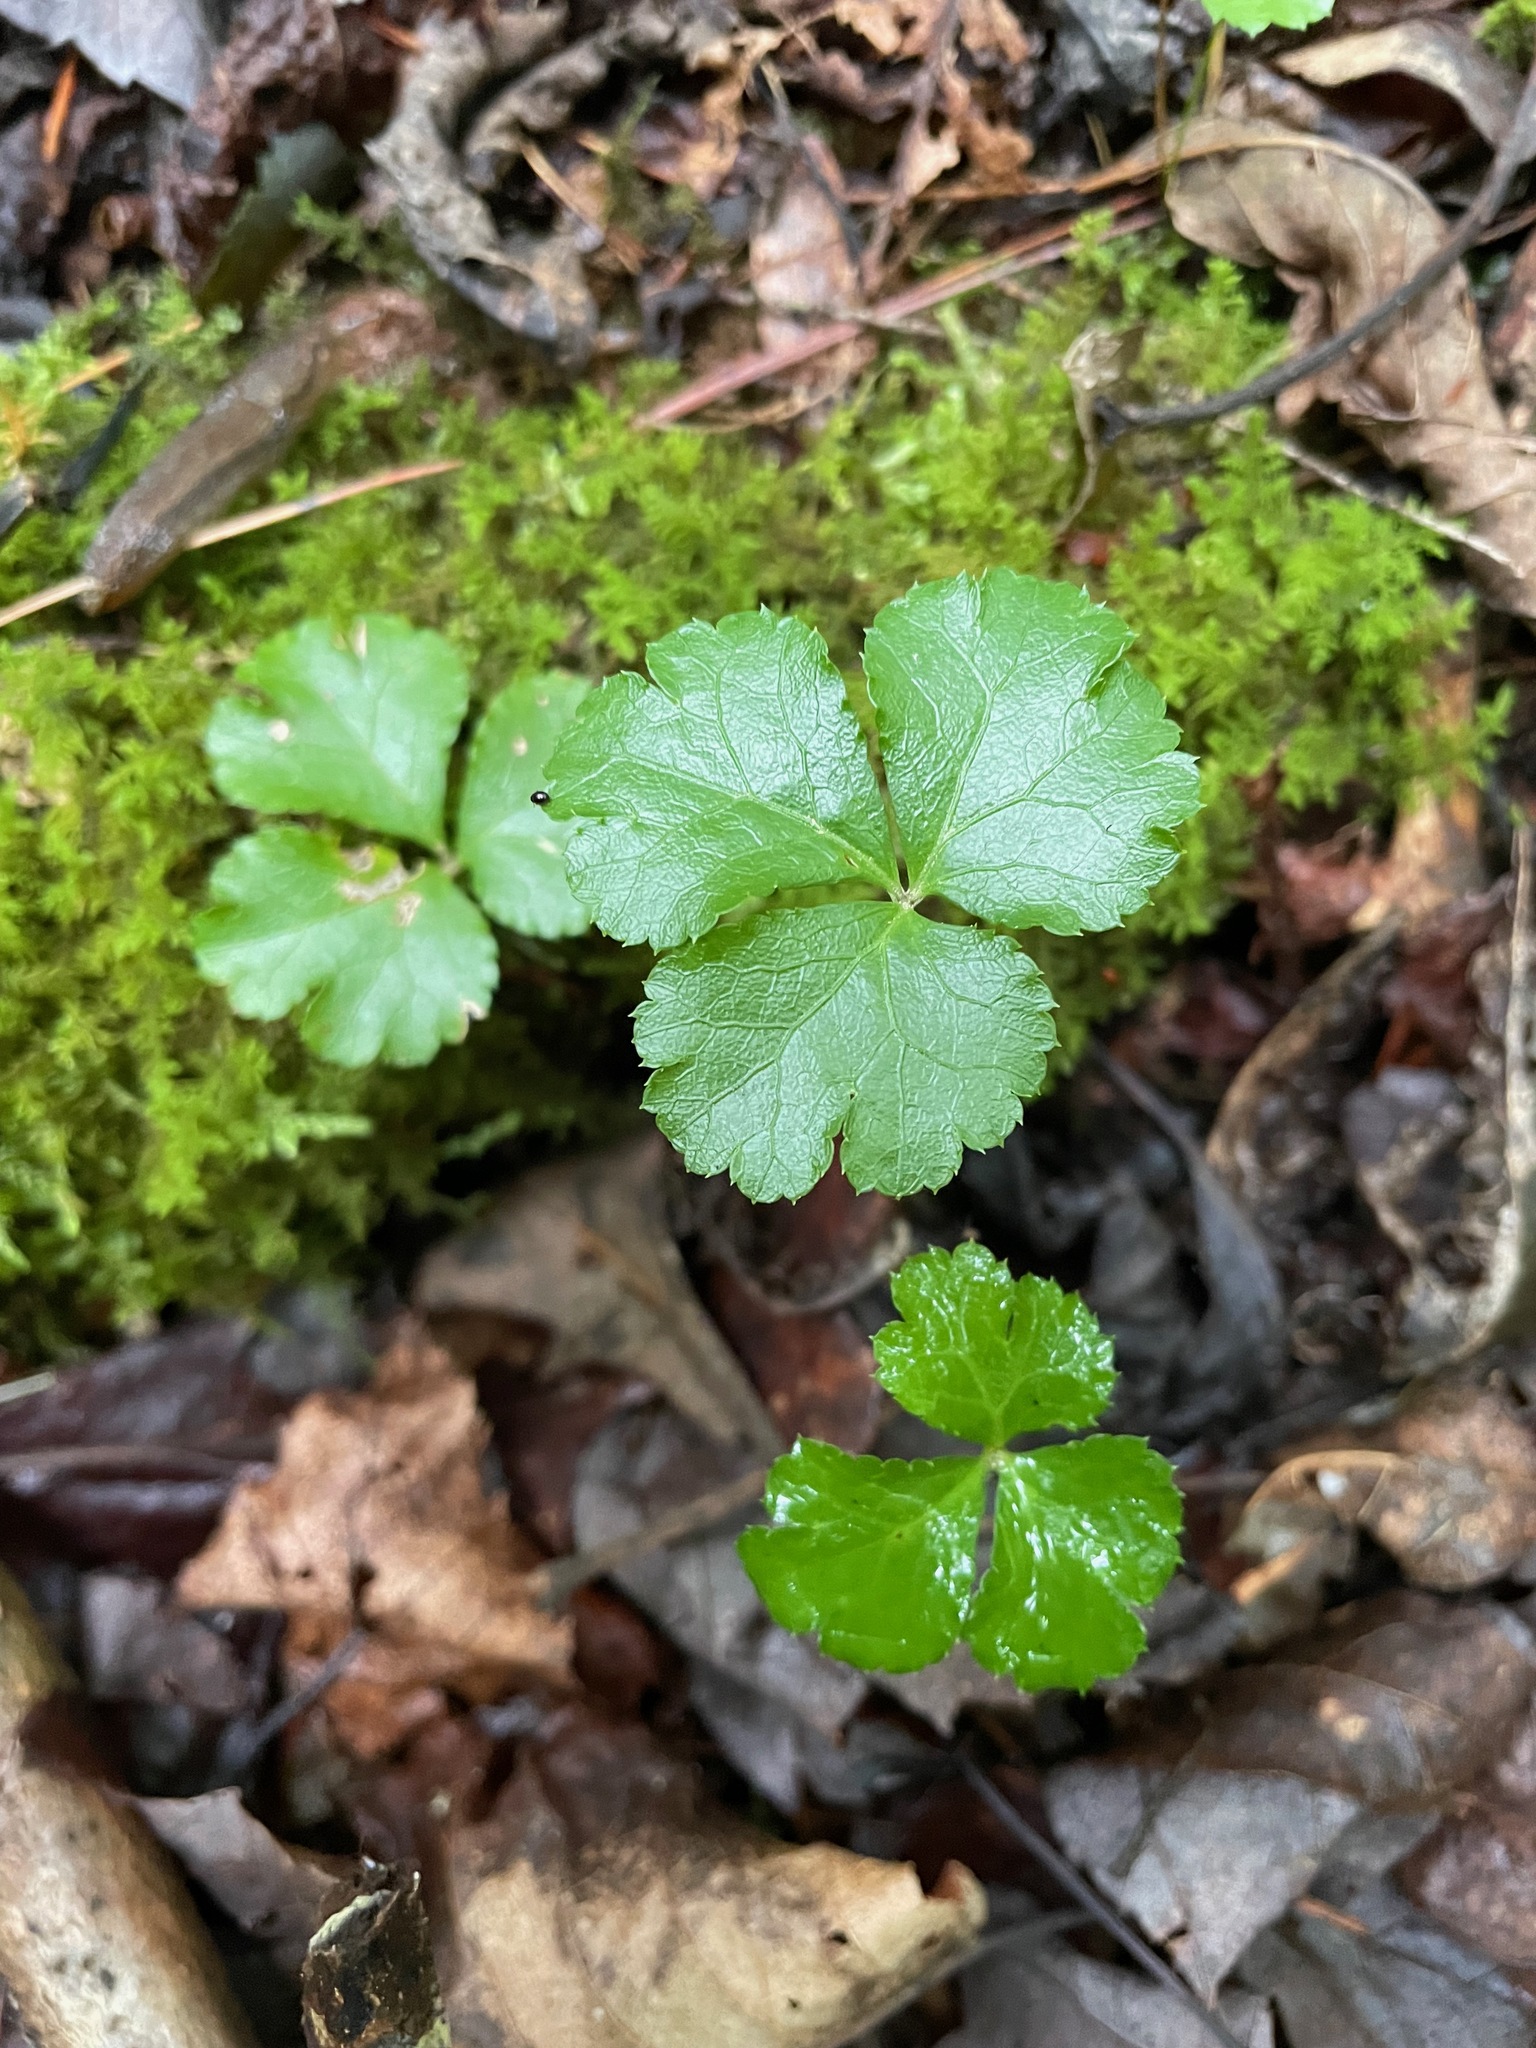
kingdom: Plantae
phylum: Tracheophyta
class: Magnoliopsida
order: Ranunculales
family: Ranunculaceae
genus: Coptis
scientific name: Coptis trifolia
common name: Canker-root
